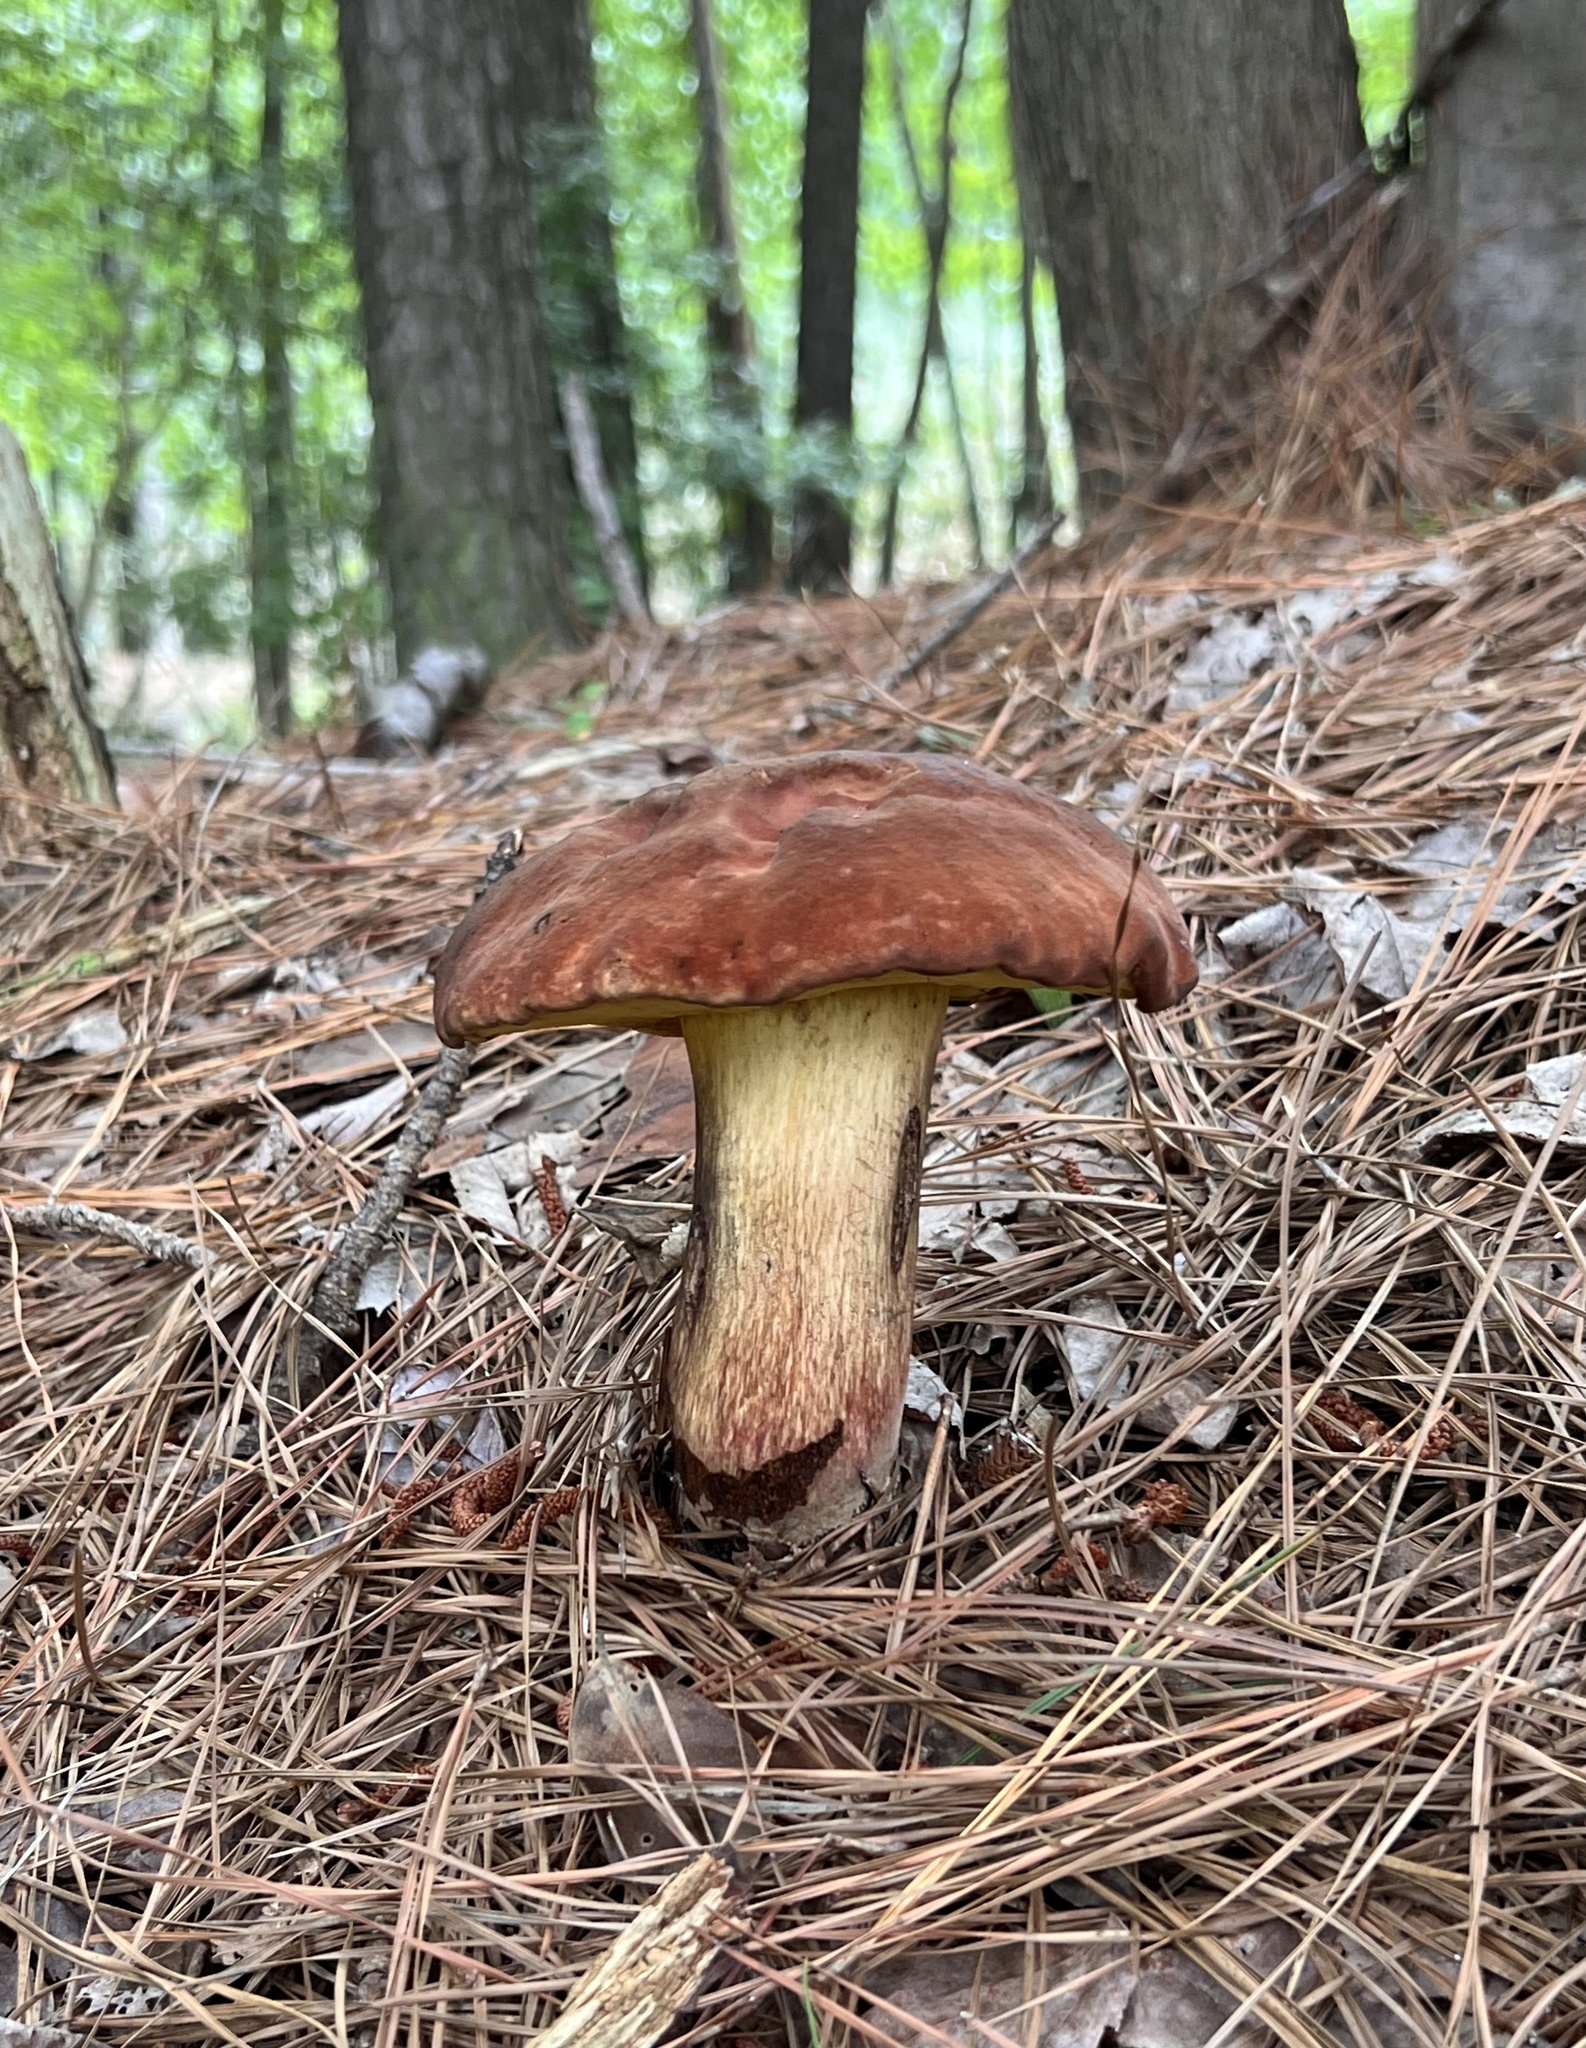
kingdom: Fungi
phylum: Basidiomycota
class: Agaricomycetes
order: Boletales
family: Boletaceae
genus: Boletus
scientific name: Boletus
